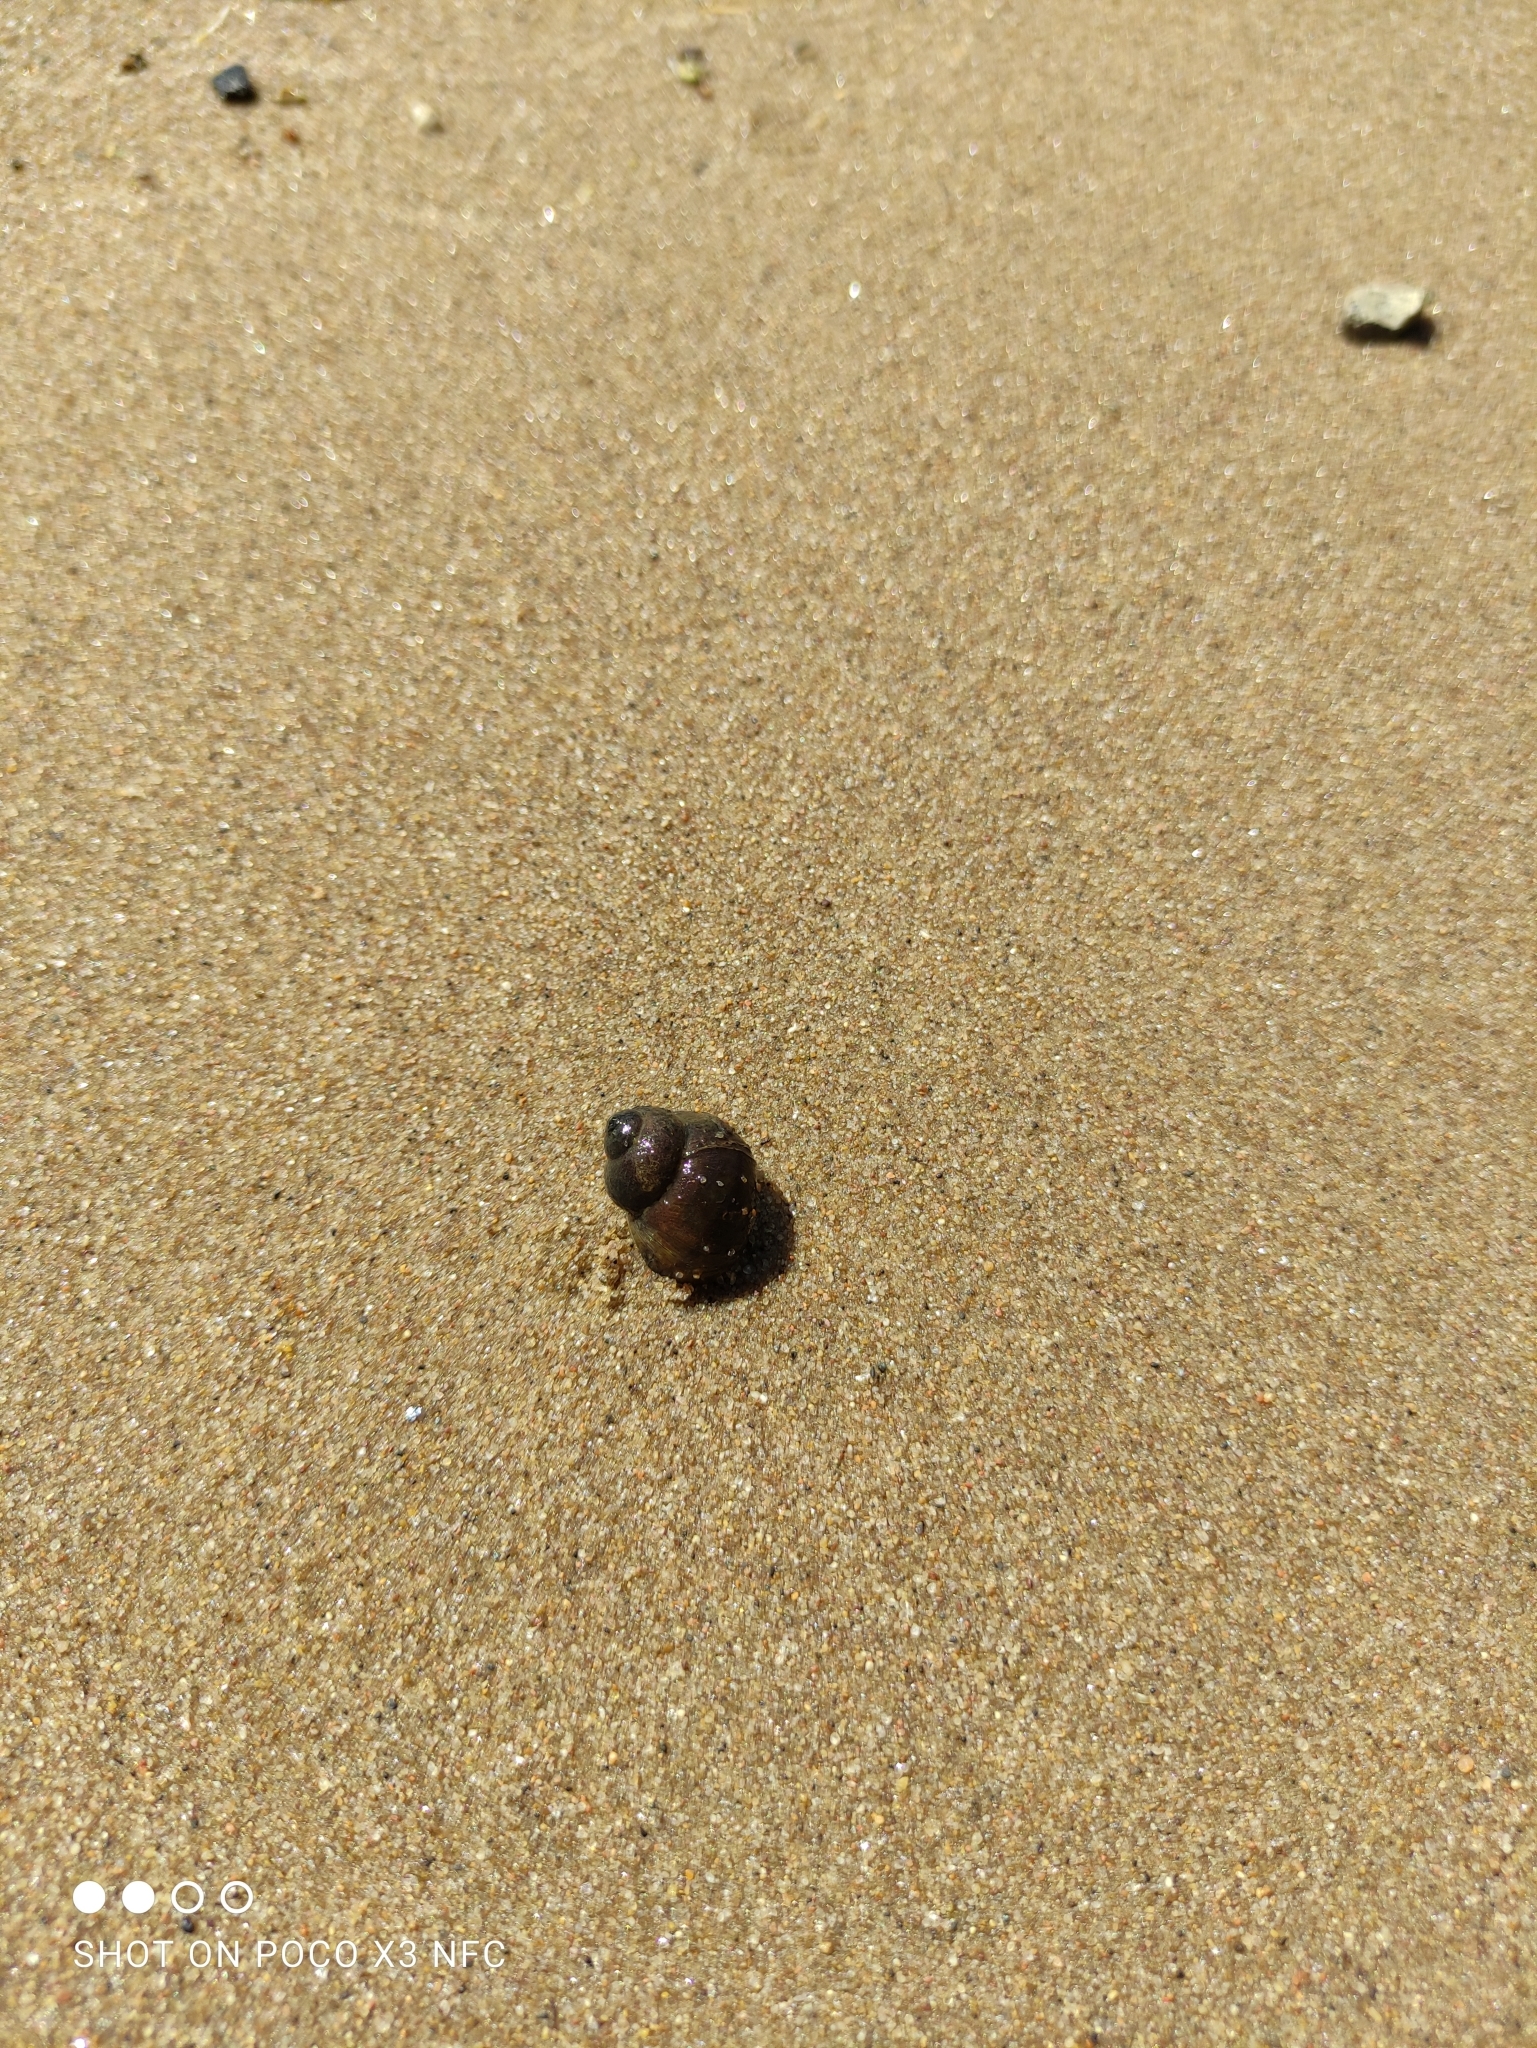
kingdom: Animalia
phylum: Mollusca
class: Gastropoda
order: Architaenioglossa
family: Viviparidae
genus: Viviparus
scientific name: Viviparus viviparus
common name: River snail
